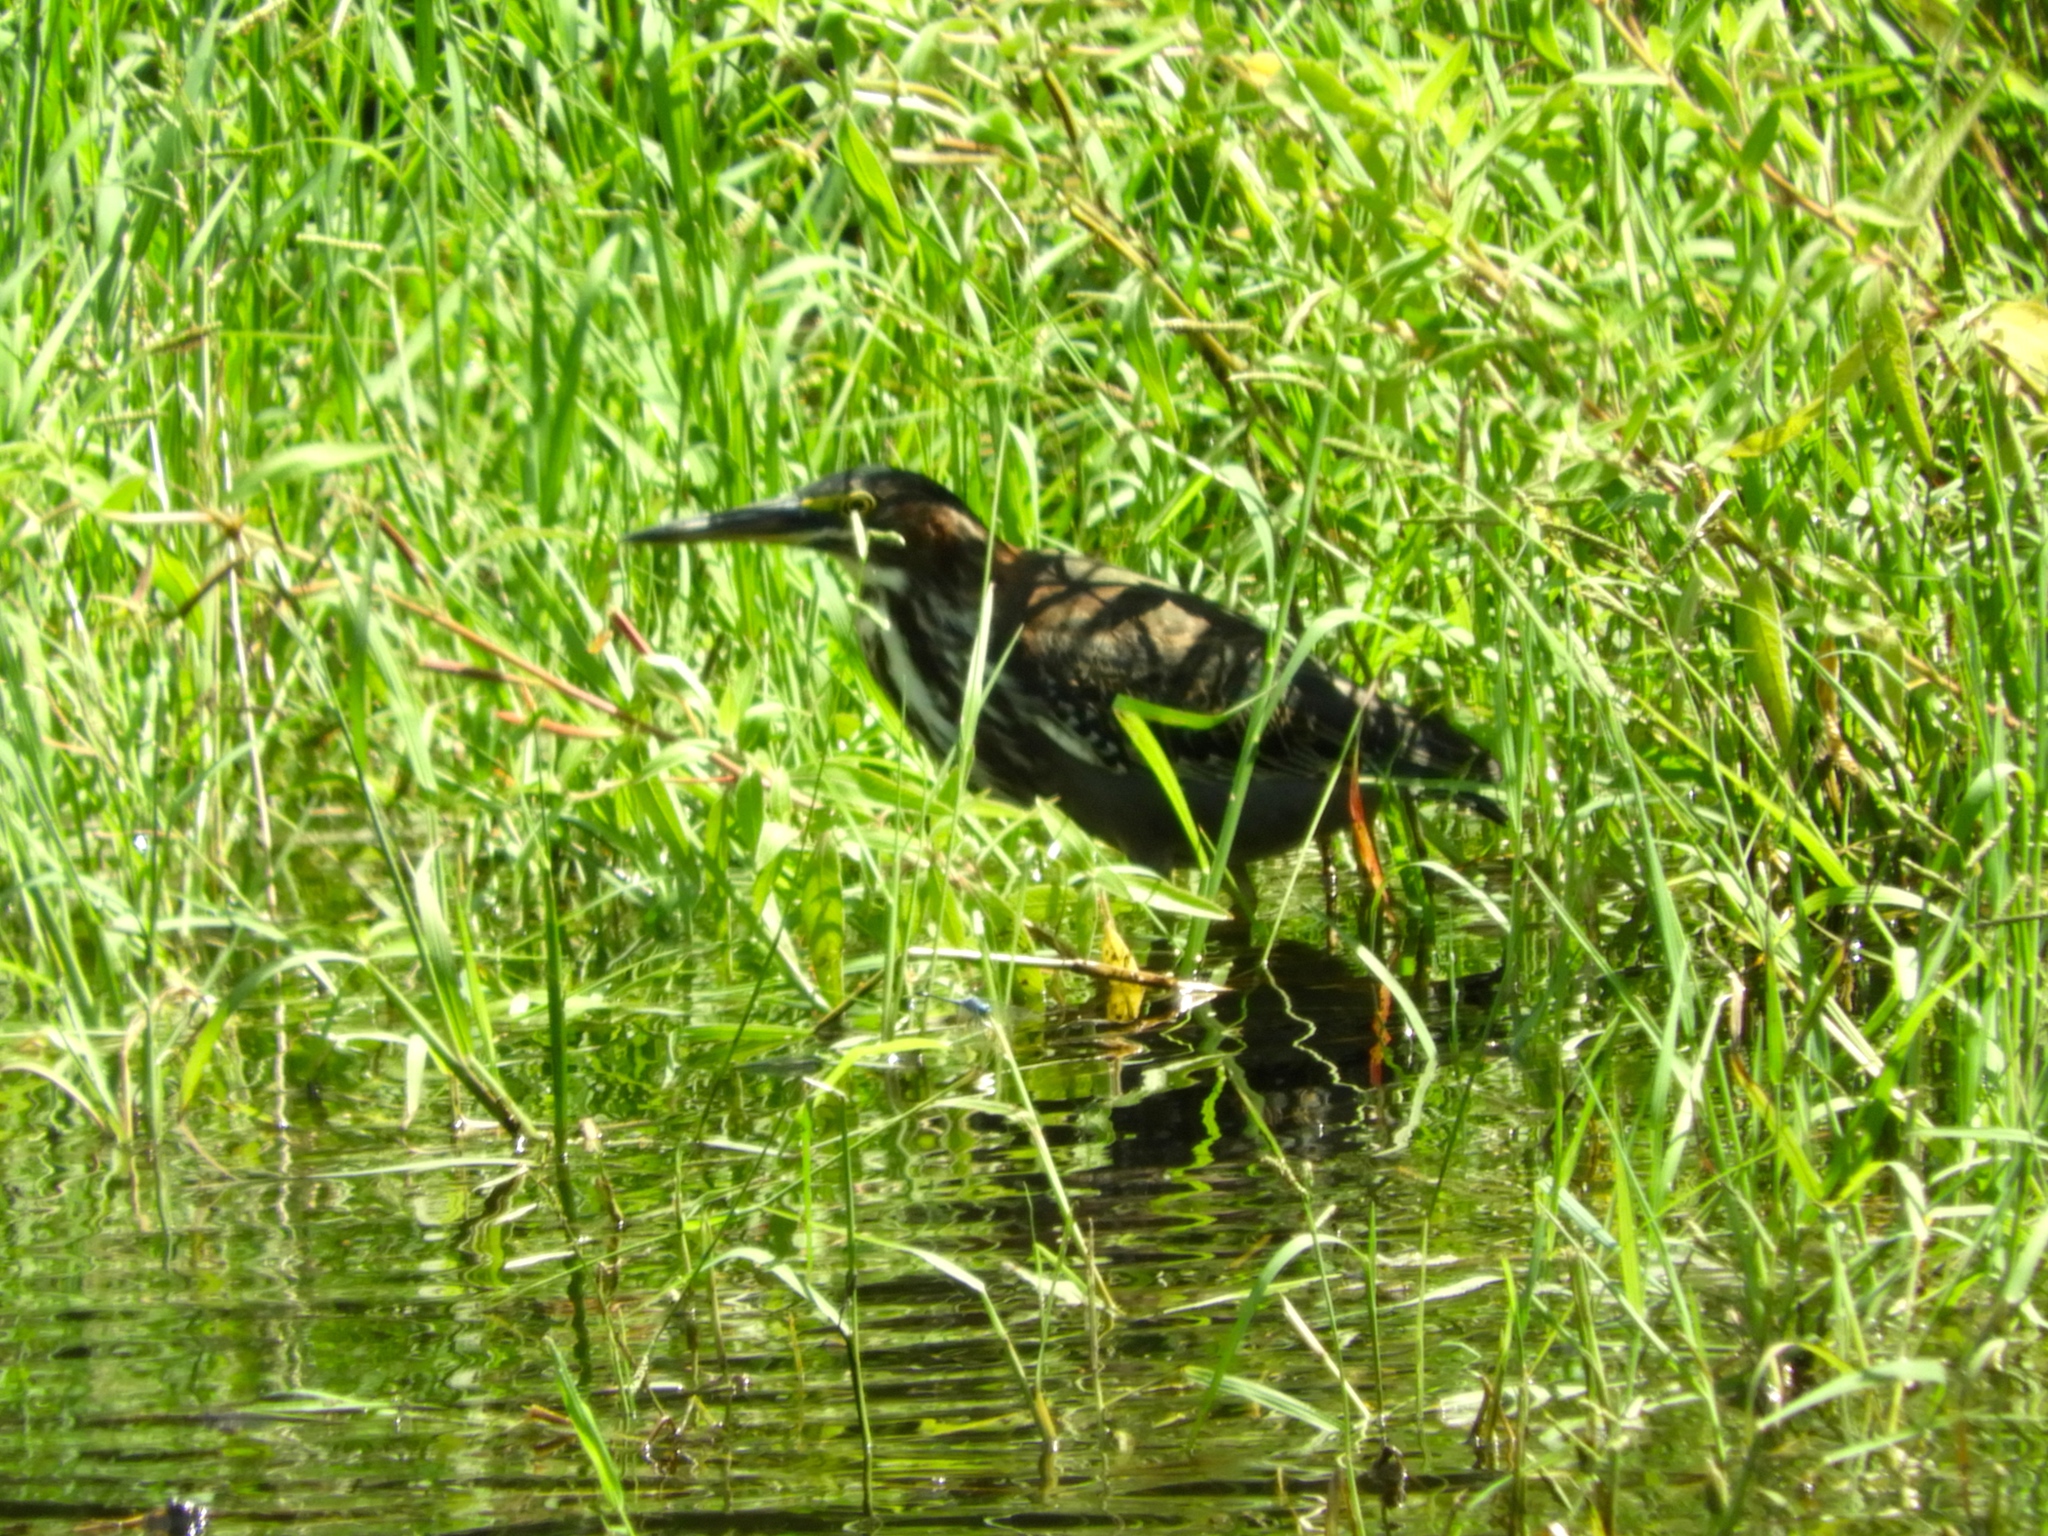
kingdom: Animalia
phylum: Chordata
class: Aves
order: Pelecaniformes
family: Ardeidae
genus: Butorides
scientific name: Butorides virescens
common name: Green heron
